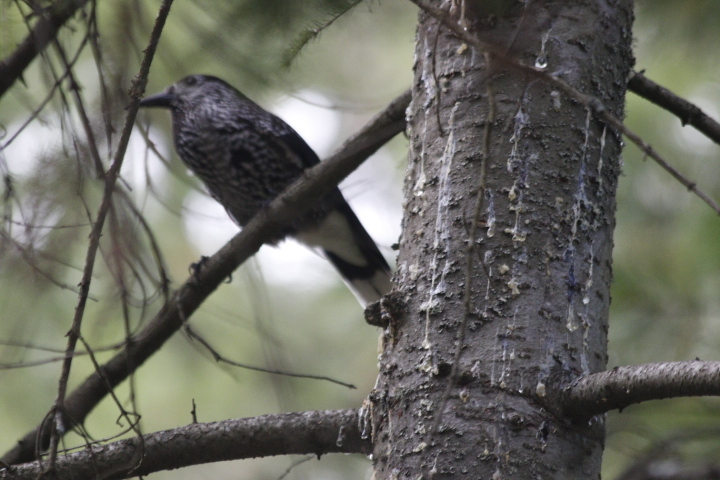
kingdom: Animalia
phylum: Chordata
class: Aves
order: Passeriformes
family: Corvidae
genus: Nucifraga
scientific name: Nucifraga caryocatactes
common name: Spotted nutcracker
